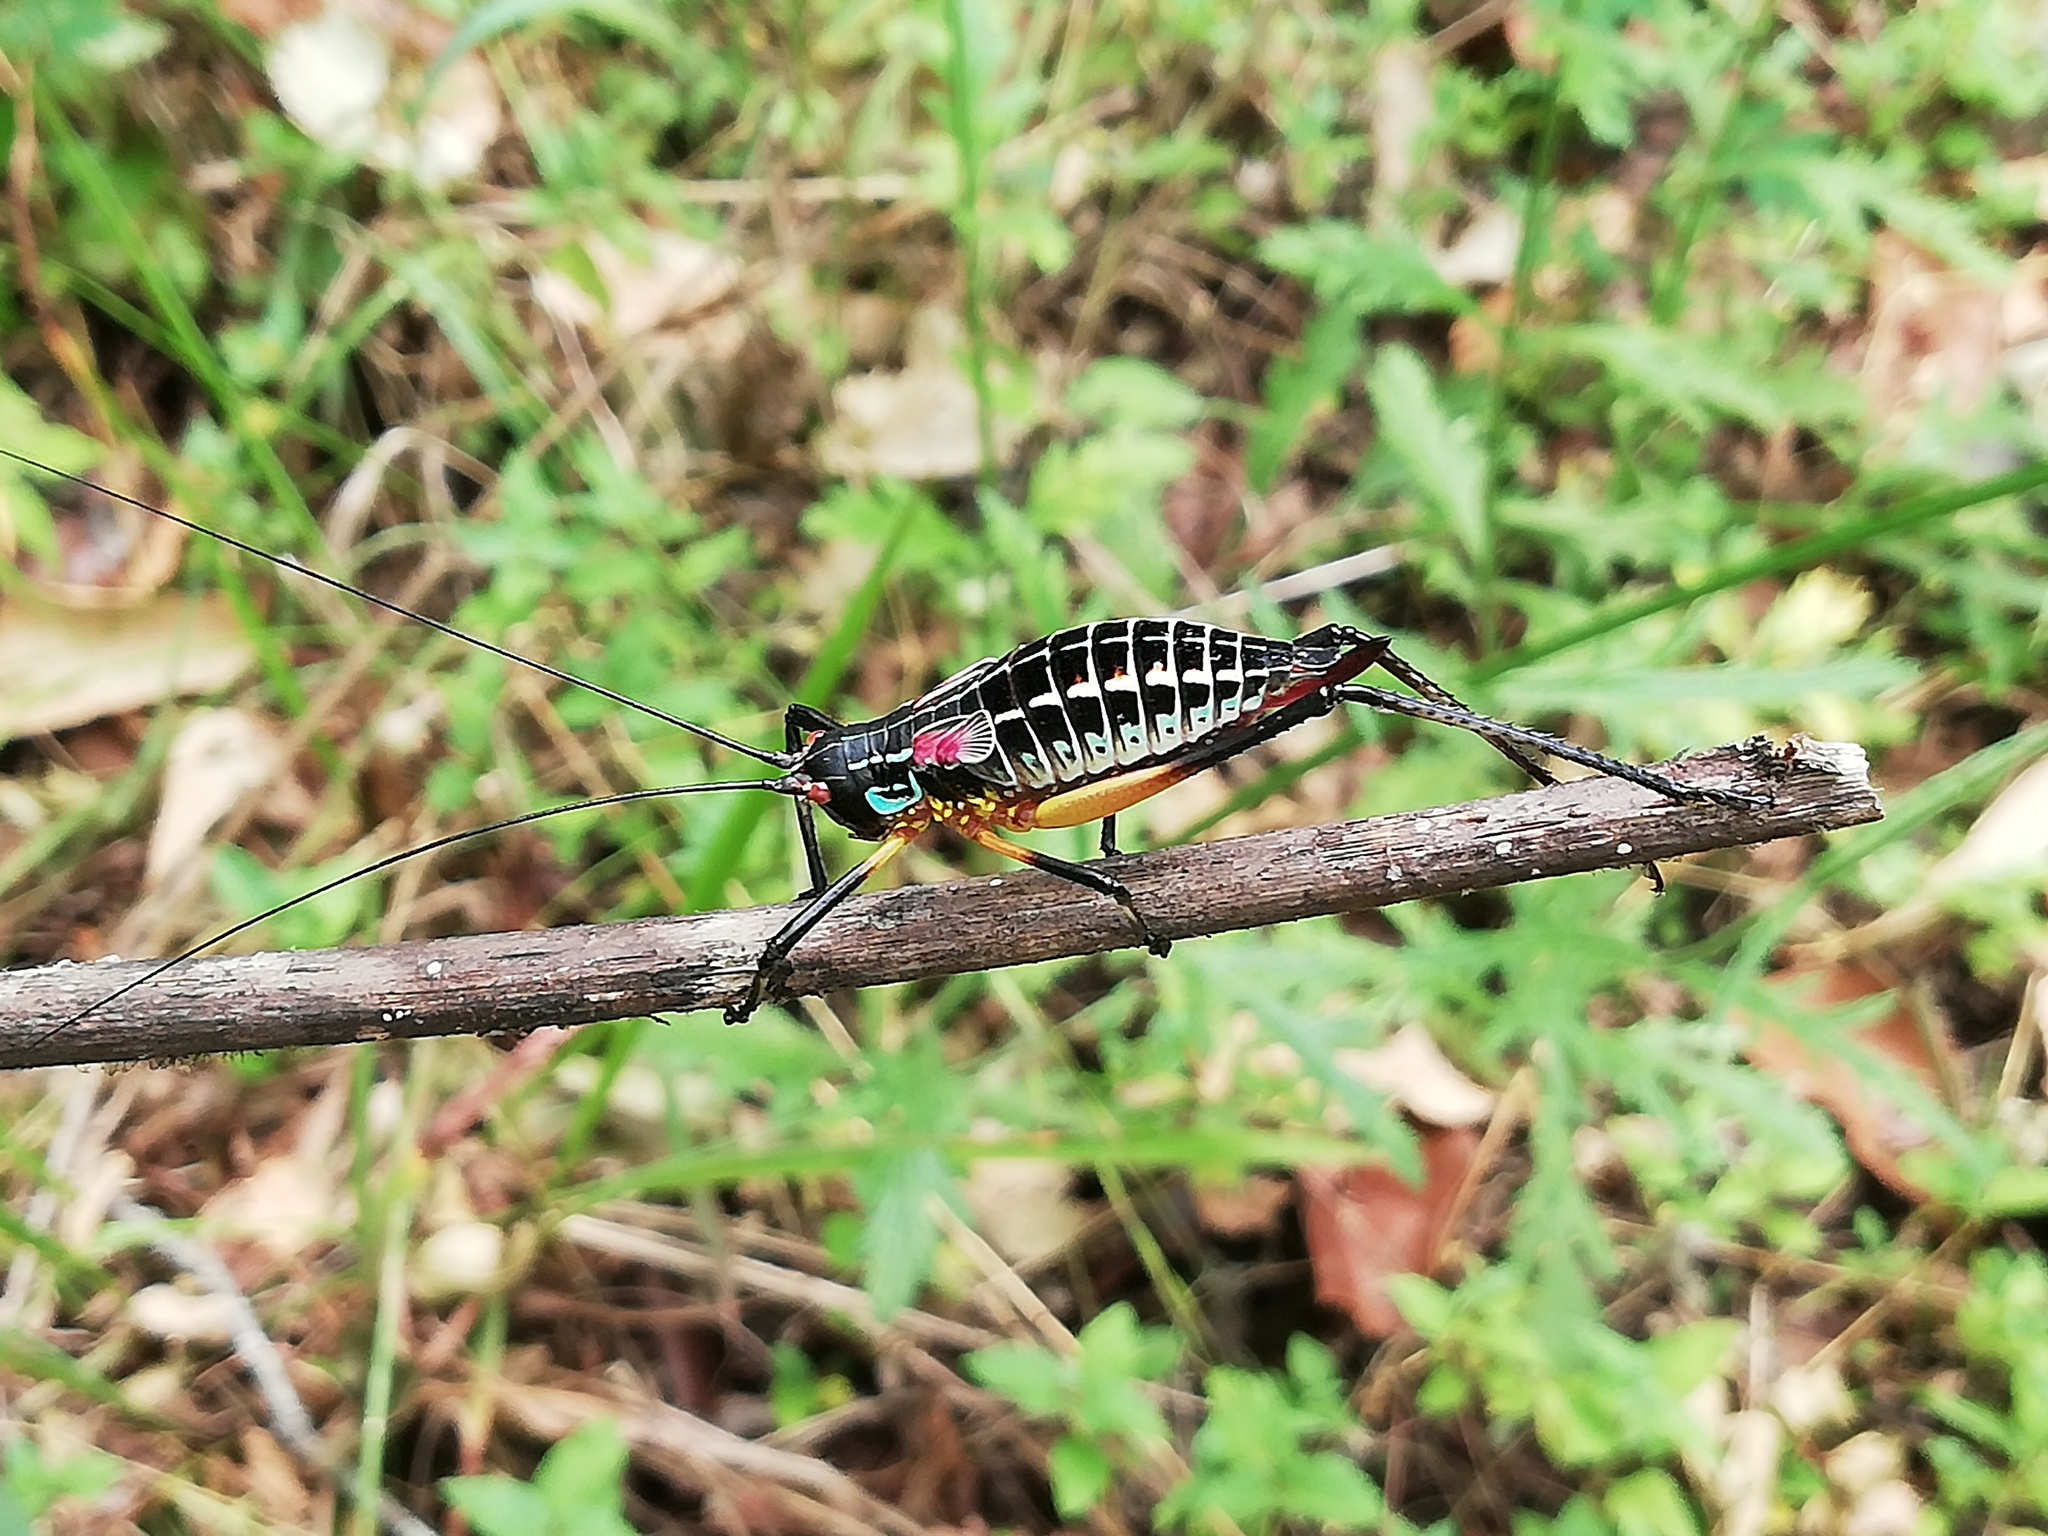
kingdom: Animalia
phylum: Arthropoda
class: Insecta
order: Orthoptera
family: Tettigoniidae
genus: Pterophylla
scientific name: Pterophylla beltrani
